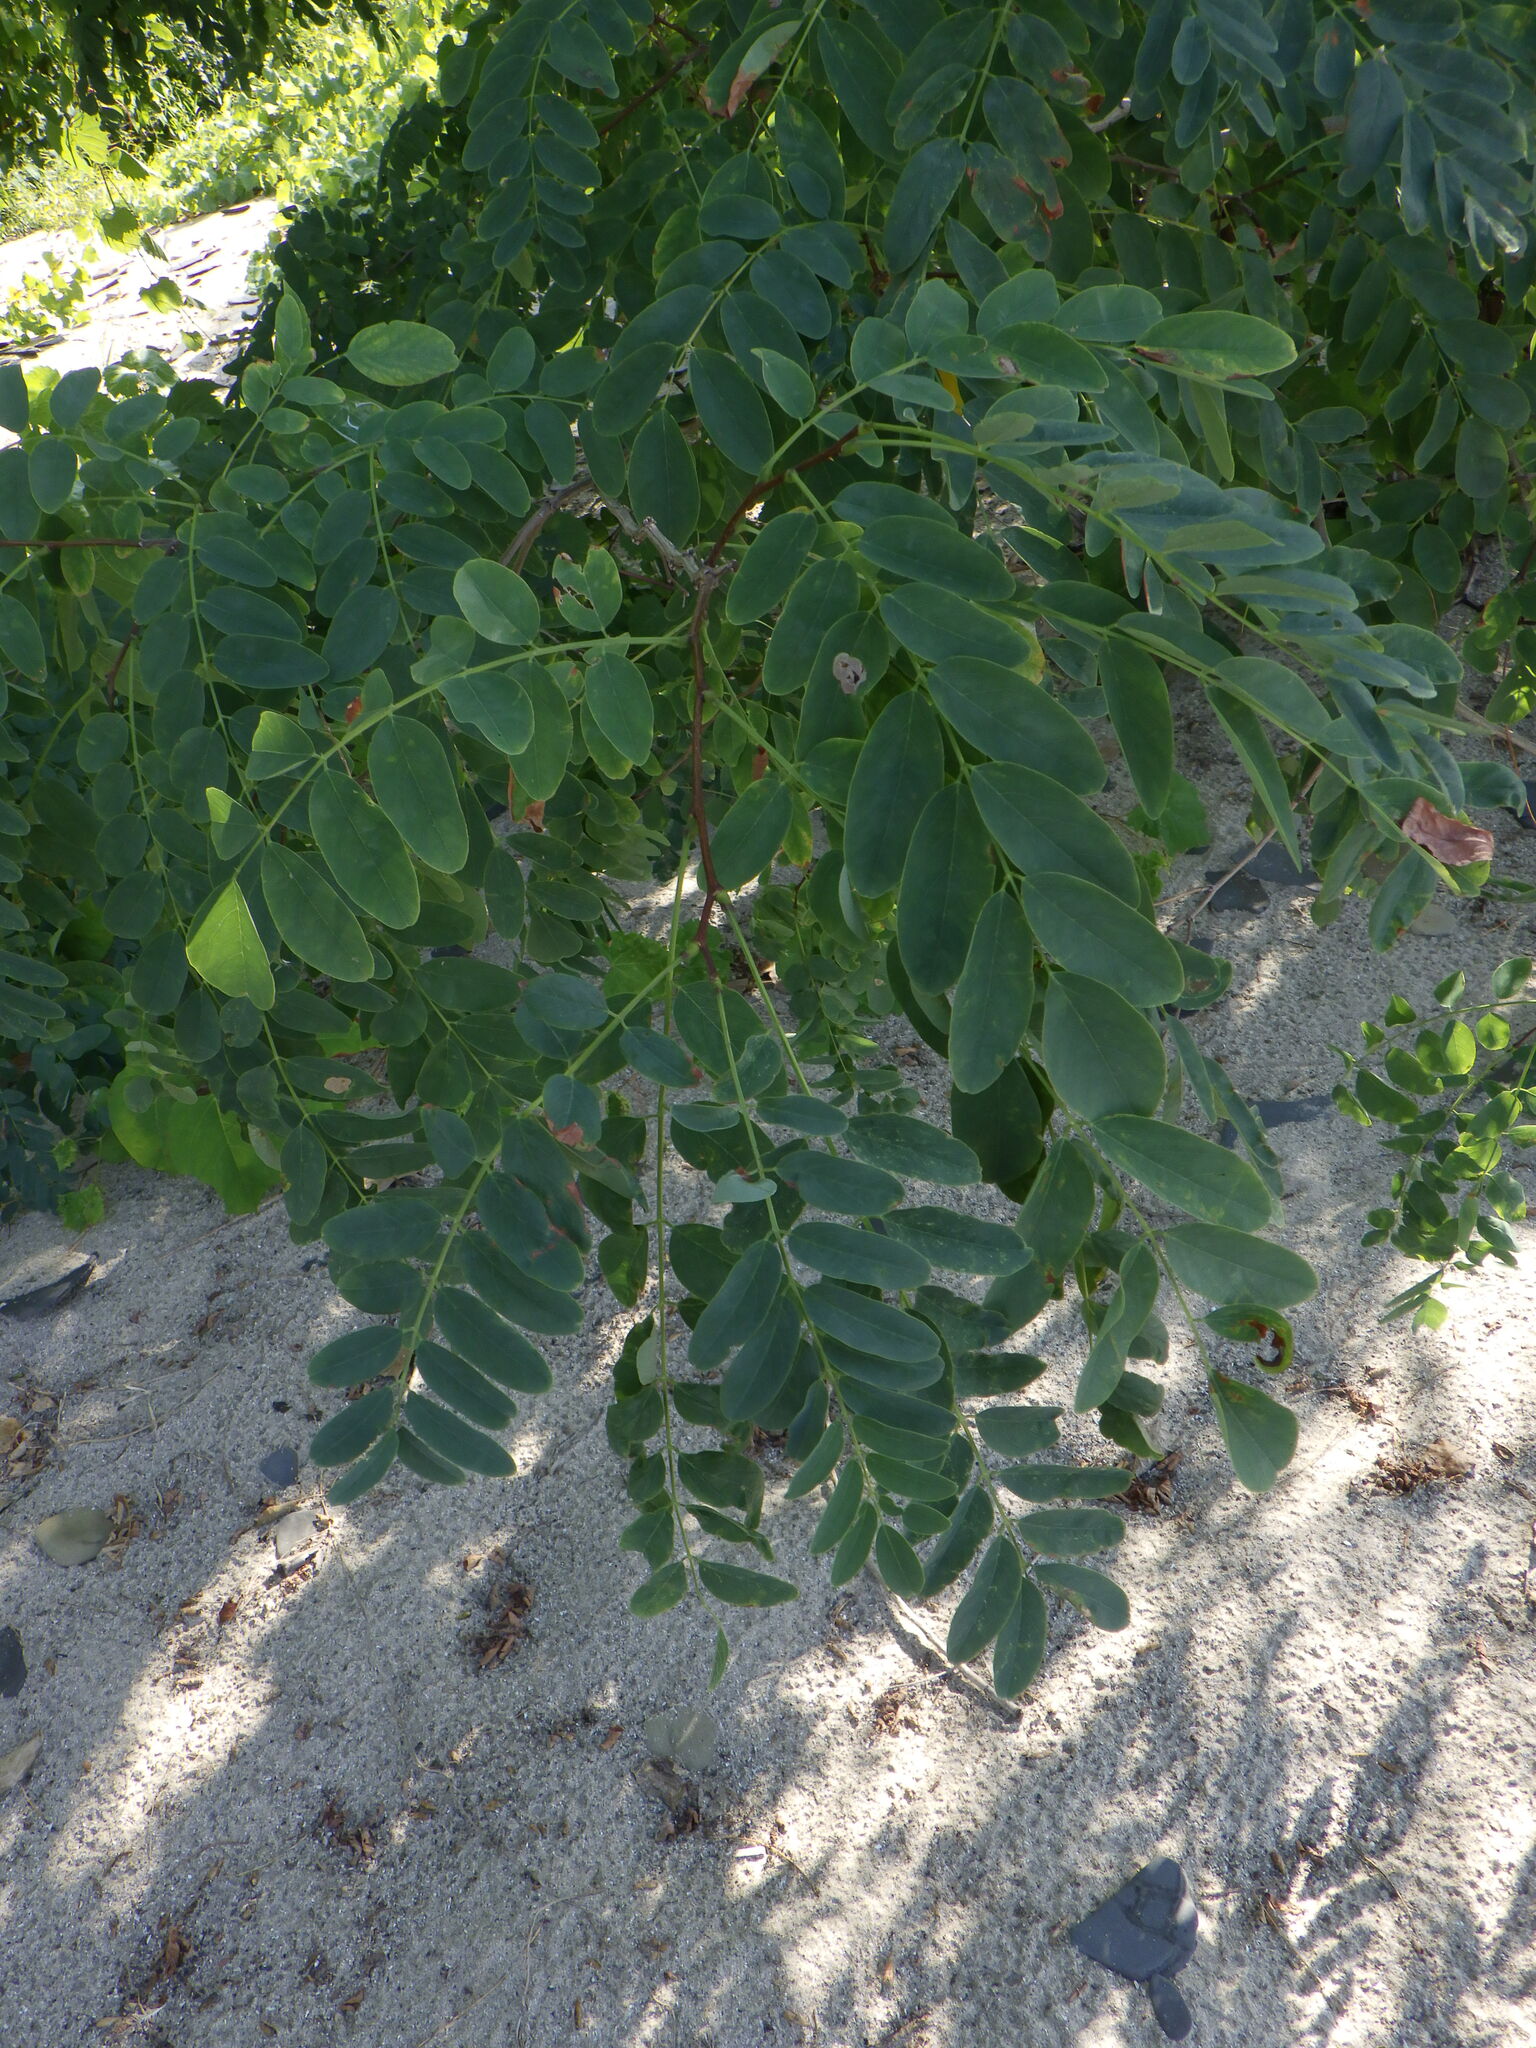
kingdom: Plantae
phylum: Tracheophyta
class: Magnoliopsida
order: Fabales
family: Fabaceae
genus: Robinia
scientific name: Robinia pseudoacacia
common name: Black locust
